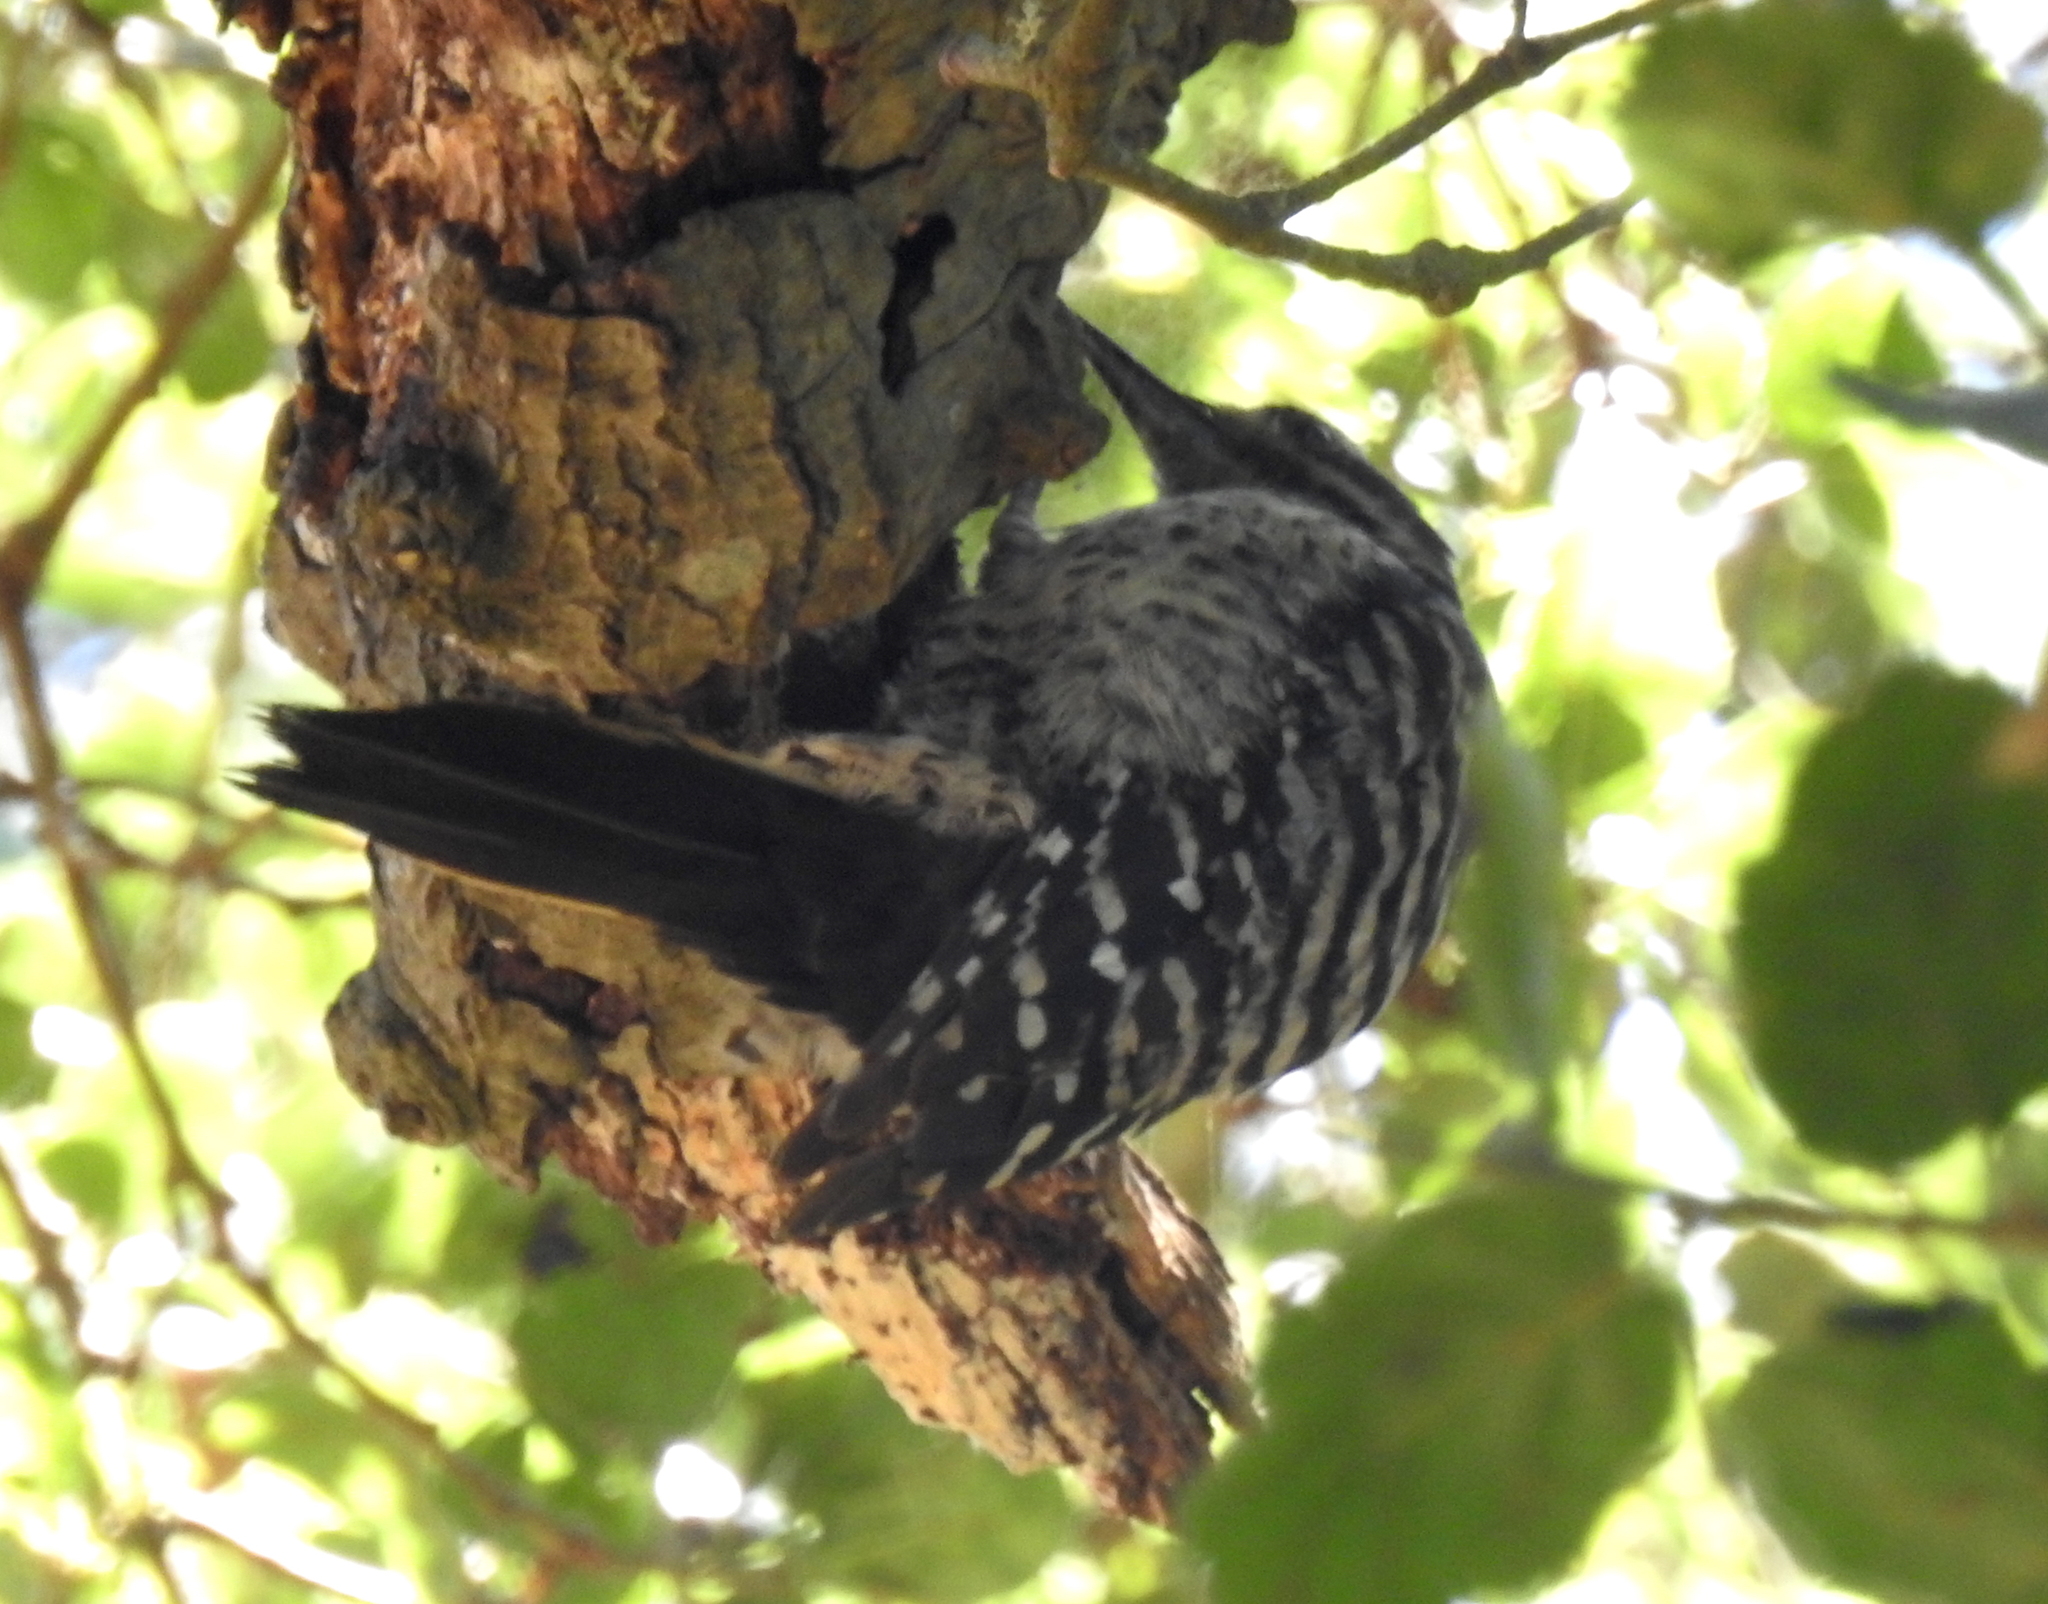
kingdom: Animalia
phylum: Chordata
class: Aves
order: Piciformes
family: Picidae
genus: Dryobates
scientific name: Dryobates nuttallii
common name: Nuttall's woodpecker
